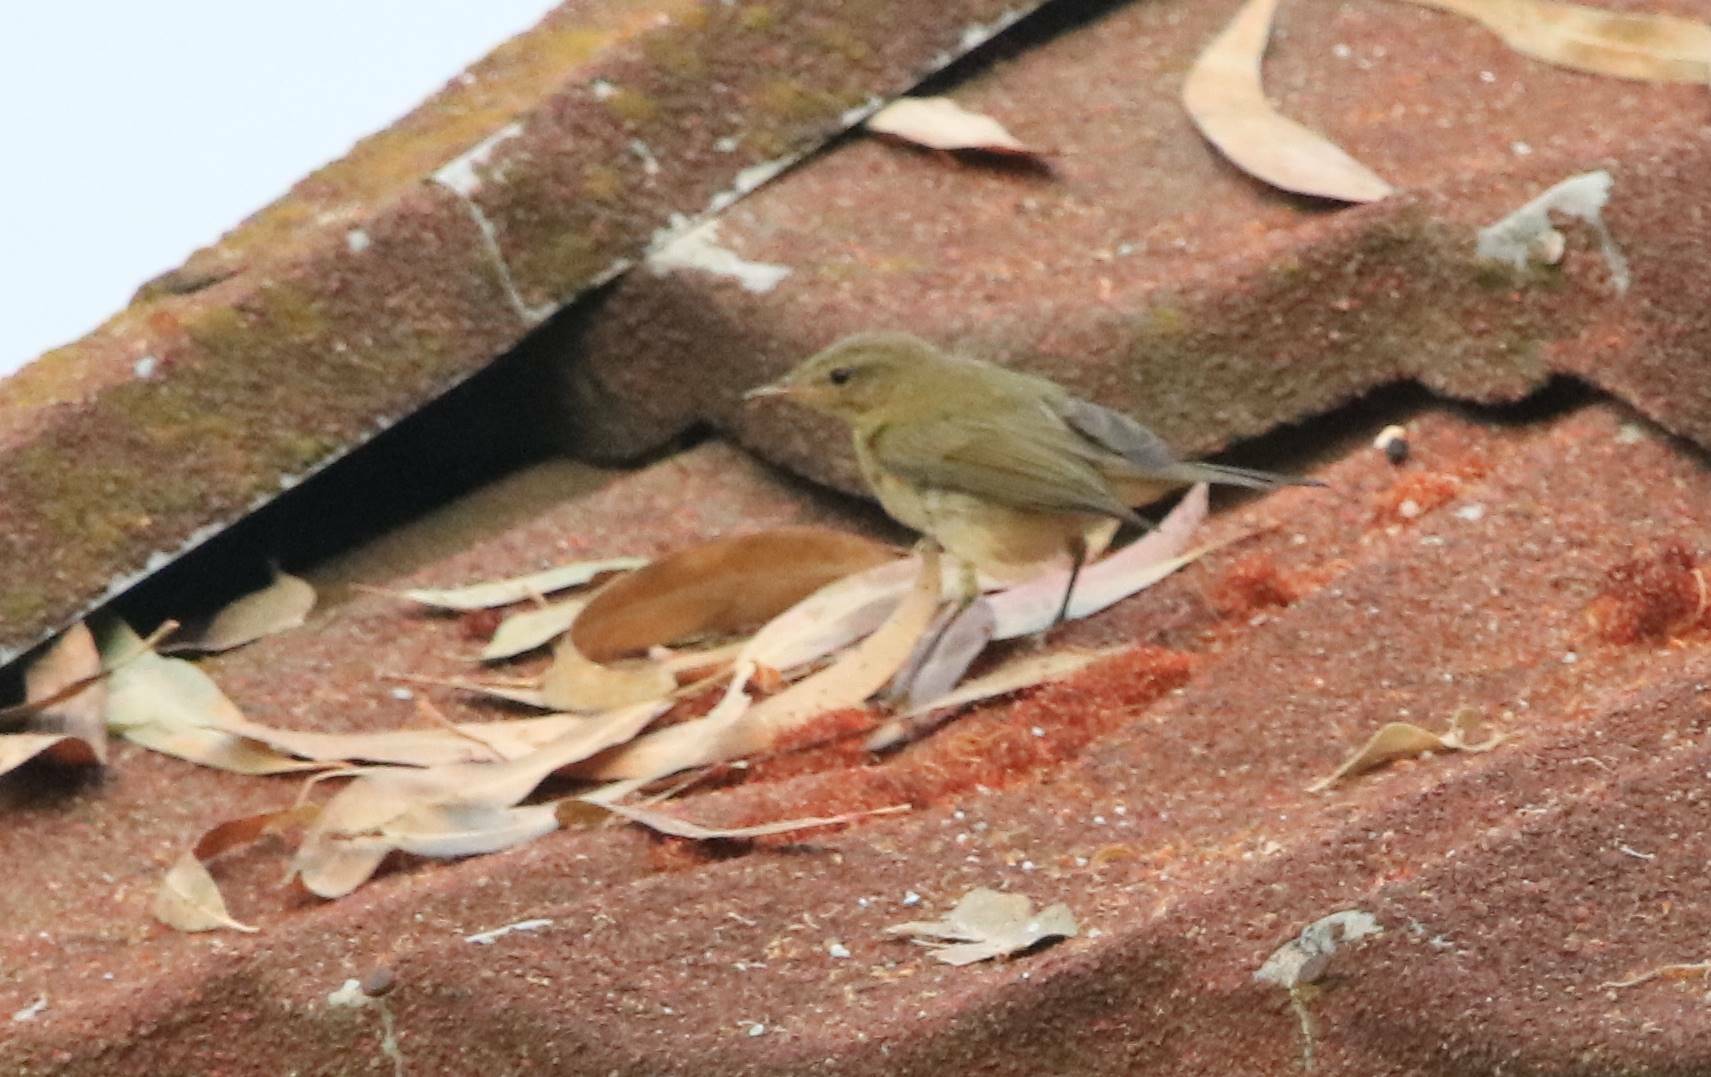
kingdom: Animalia
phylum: Chordata
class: Aves
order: Passeriformes
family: Phylloscopidae
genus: Phylloscopus
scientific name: Phylloscopus collybita
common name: Common chiffchaff
